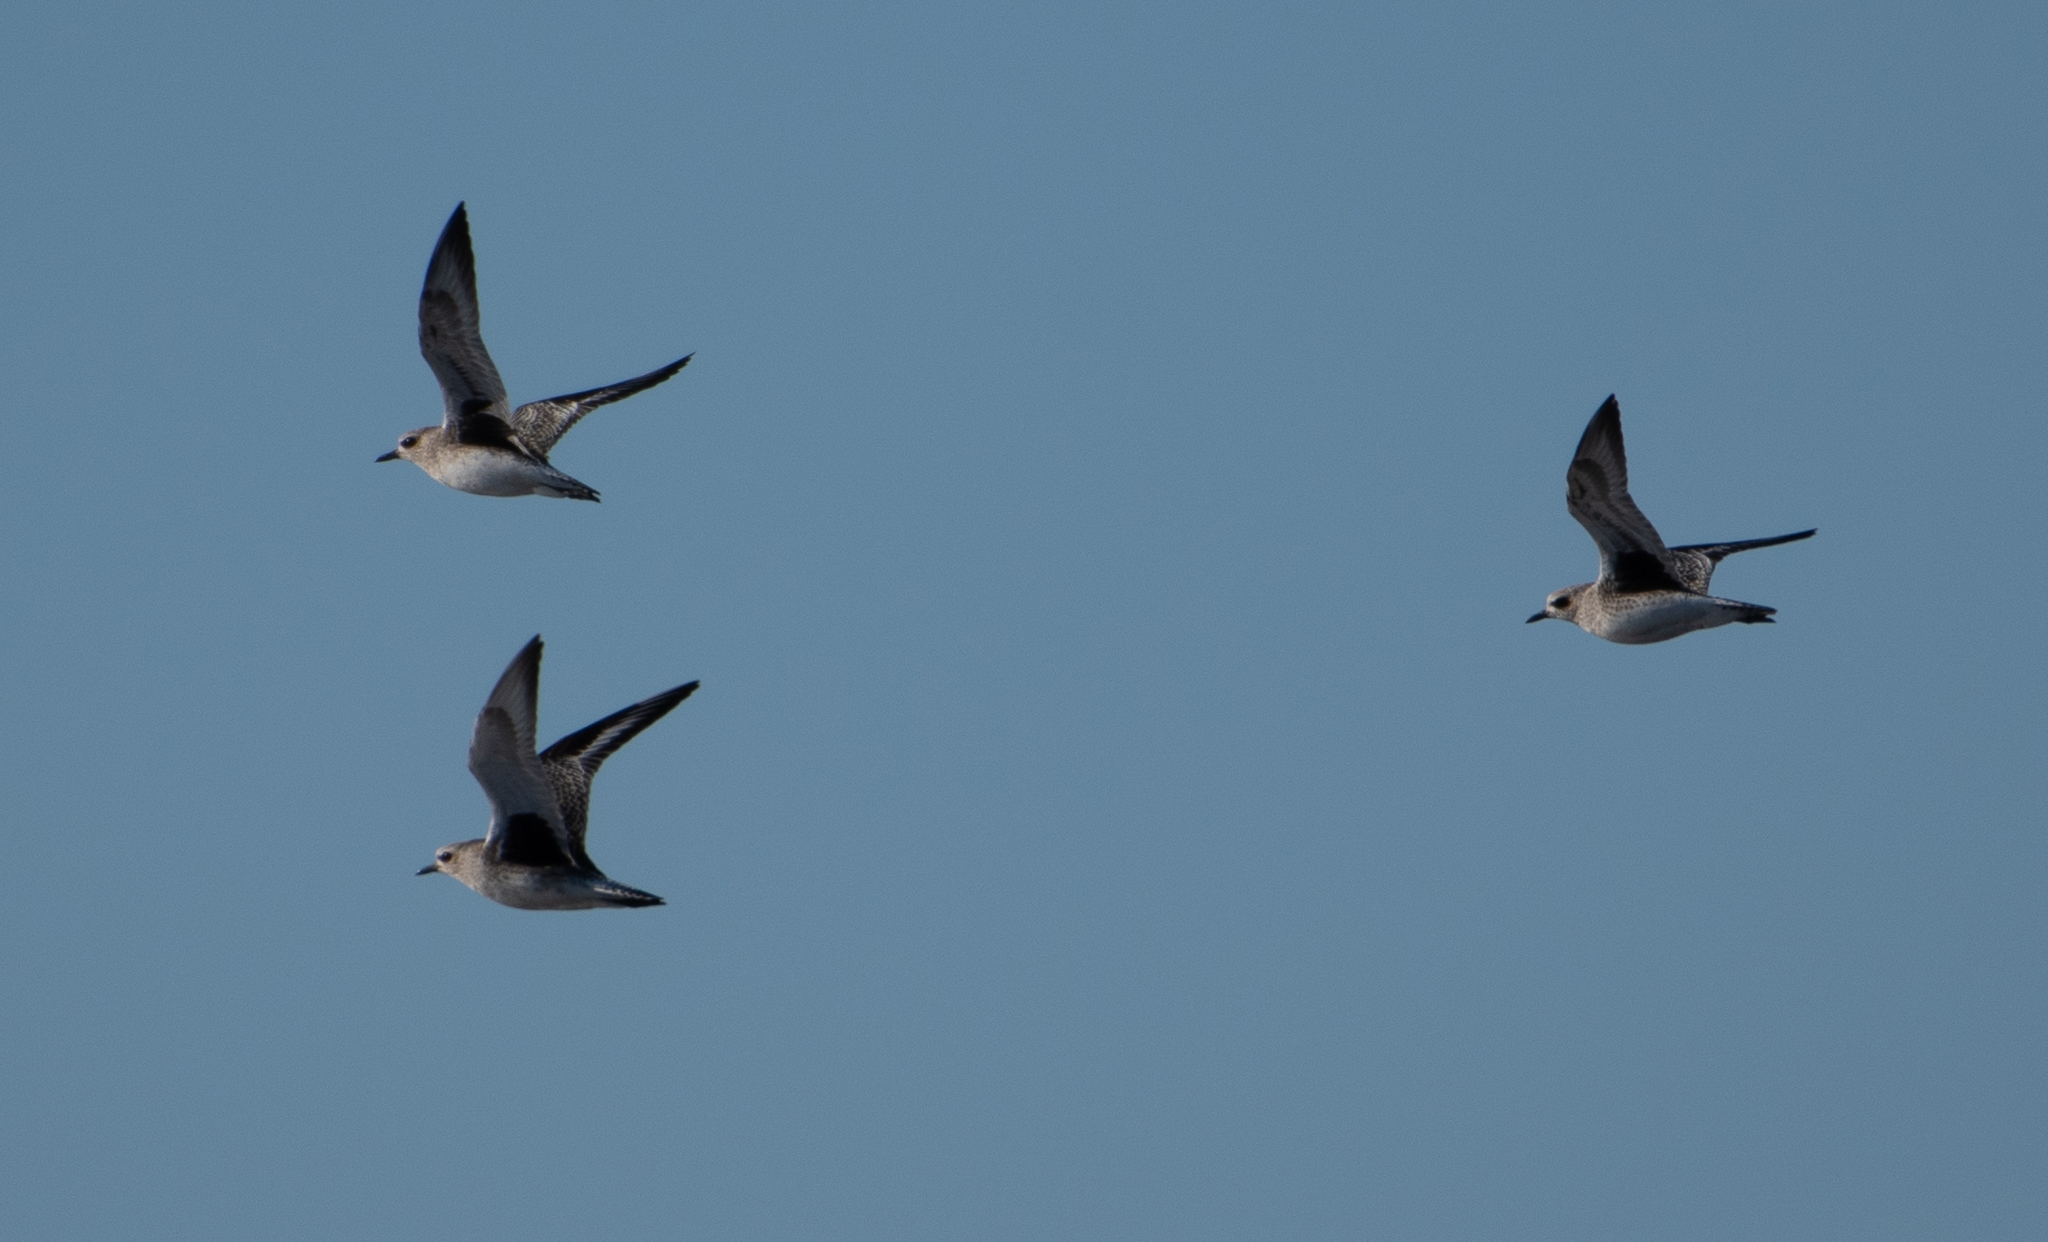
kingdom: Animalia
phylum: Chordata
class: Aves
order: Charadriiformes
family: Charadriidae
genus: Pluvialis
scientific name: Pluvialis squatarola
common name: Grey plover
